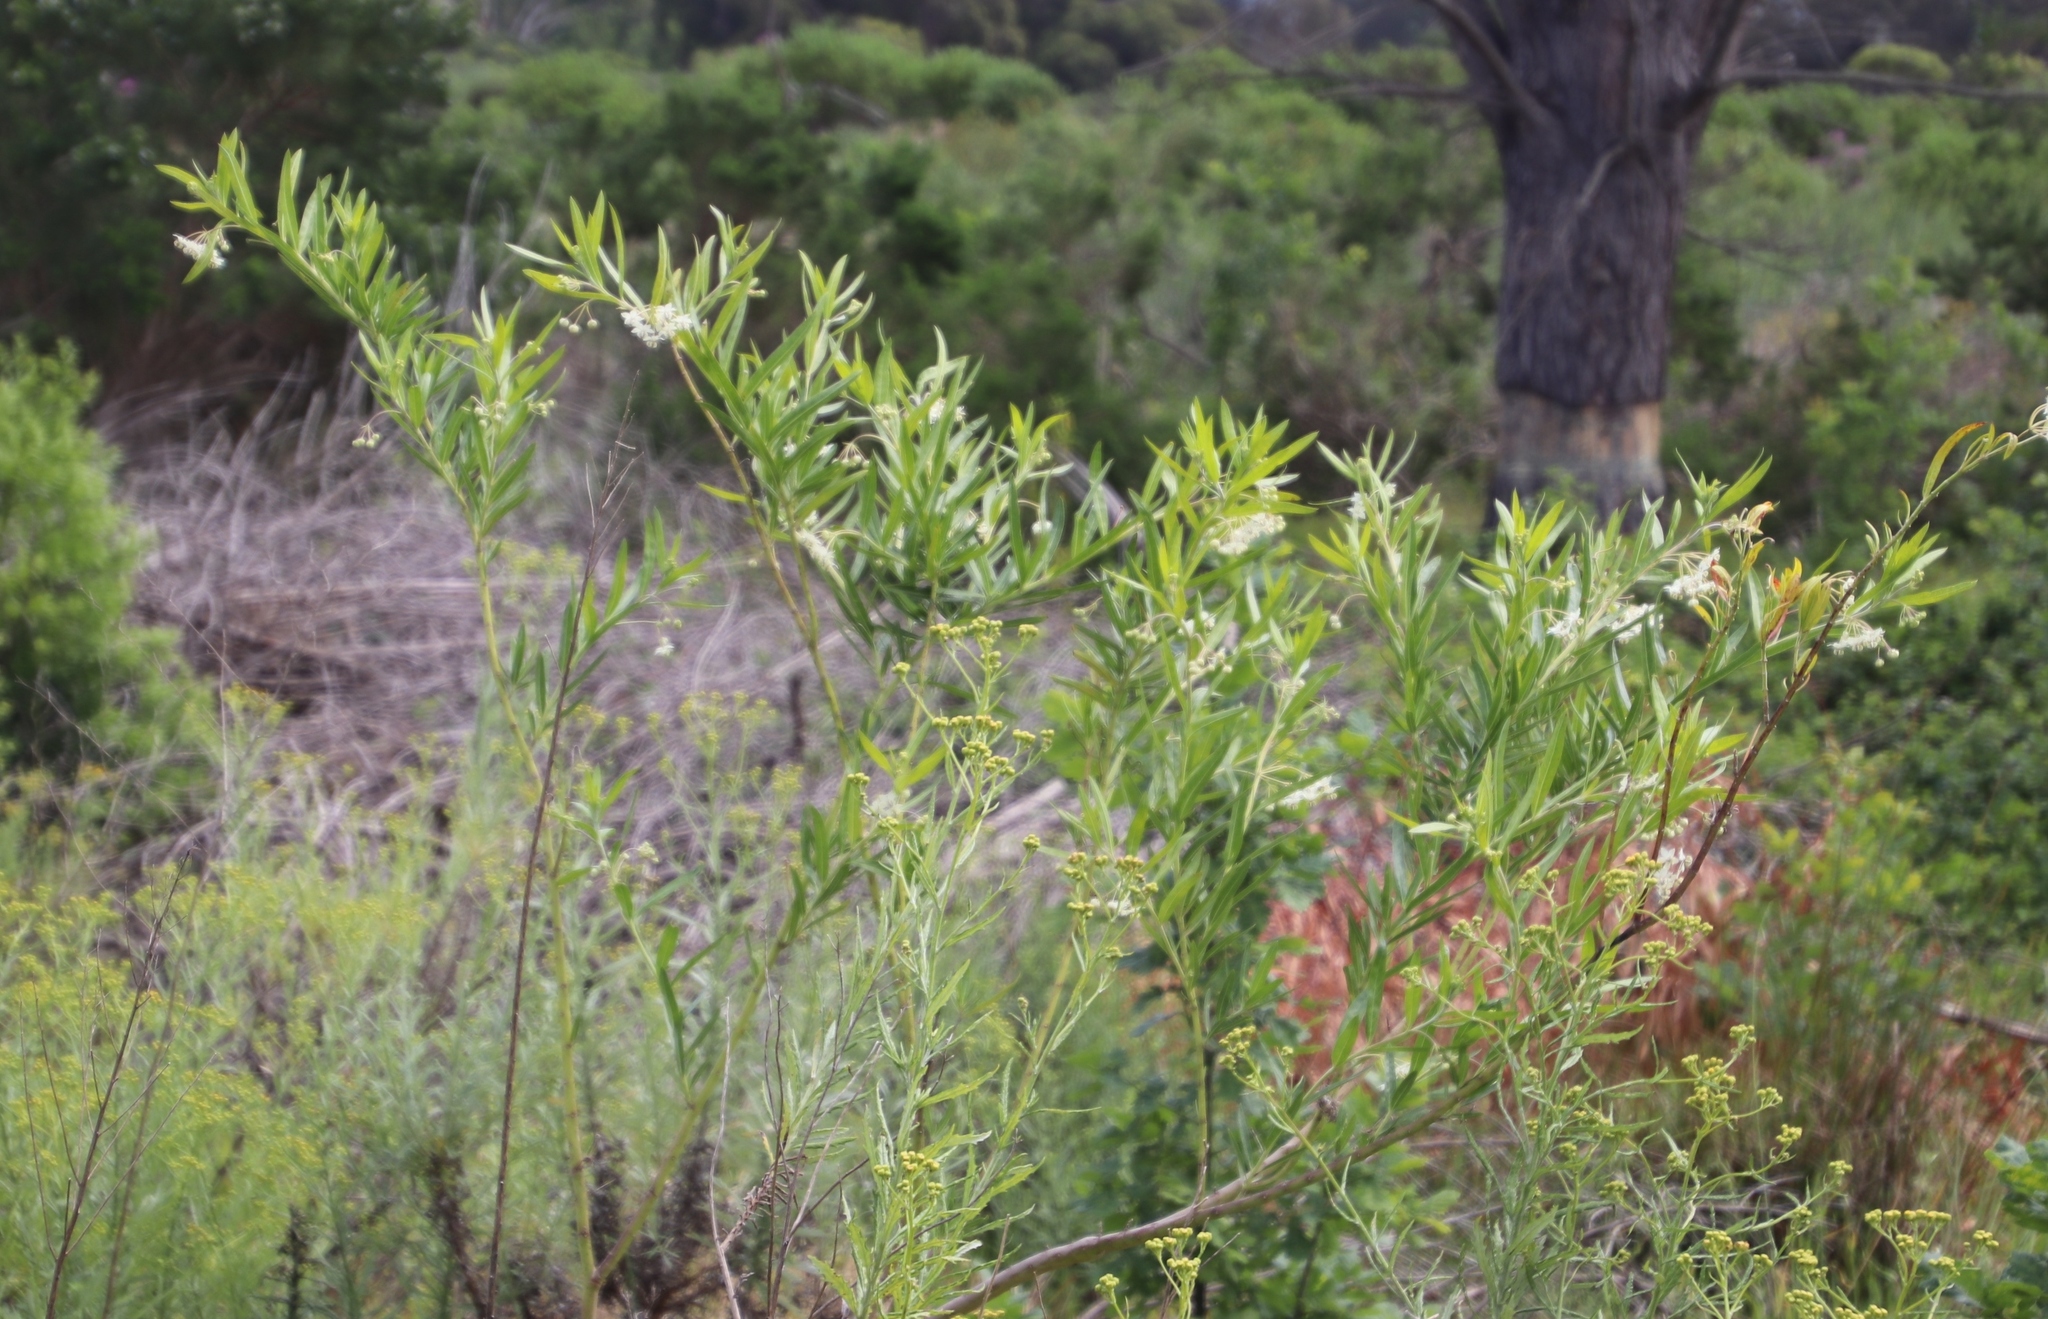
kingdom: Plantae
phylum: Tracheophyta
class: Magnoliopsida
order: Gentianales
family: Apocynaceae
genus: Gomphocarpus
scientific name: Gomphocarpus physocarpus
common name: Balloon cotton bush
